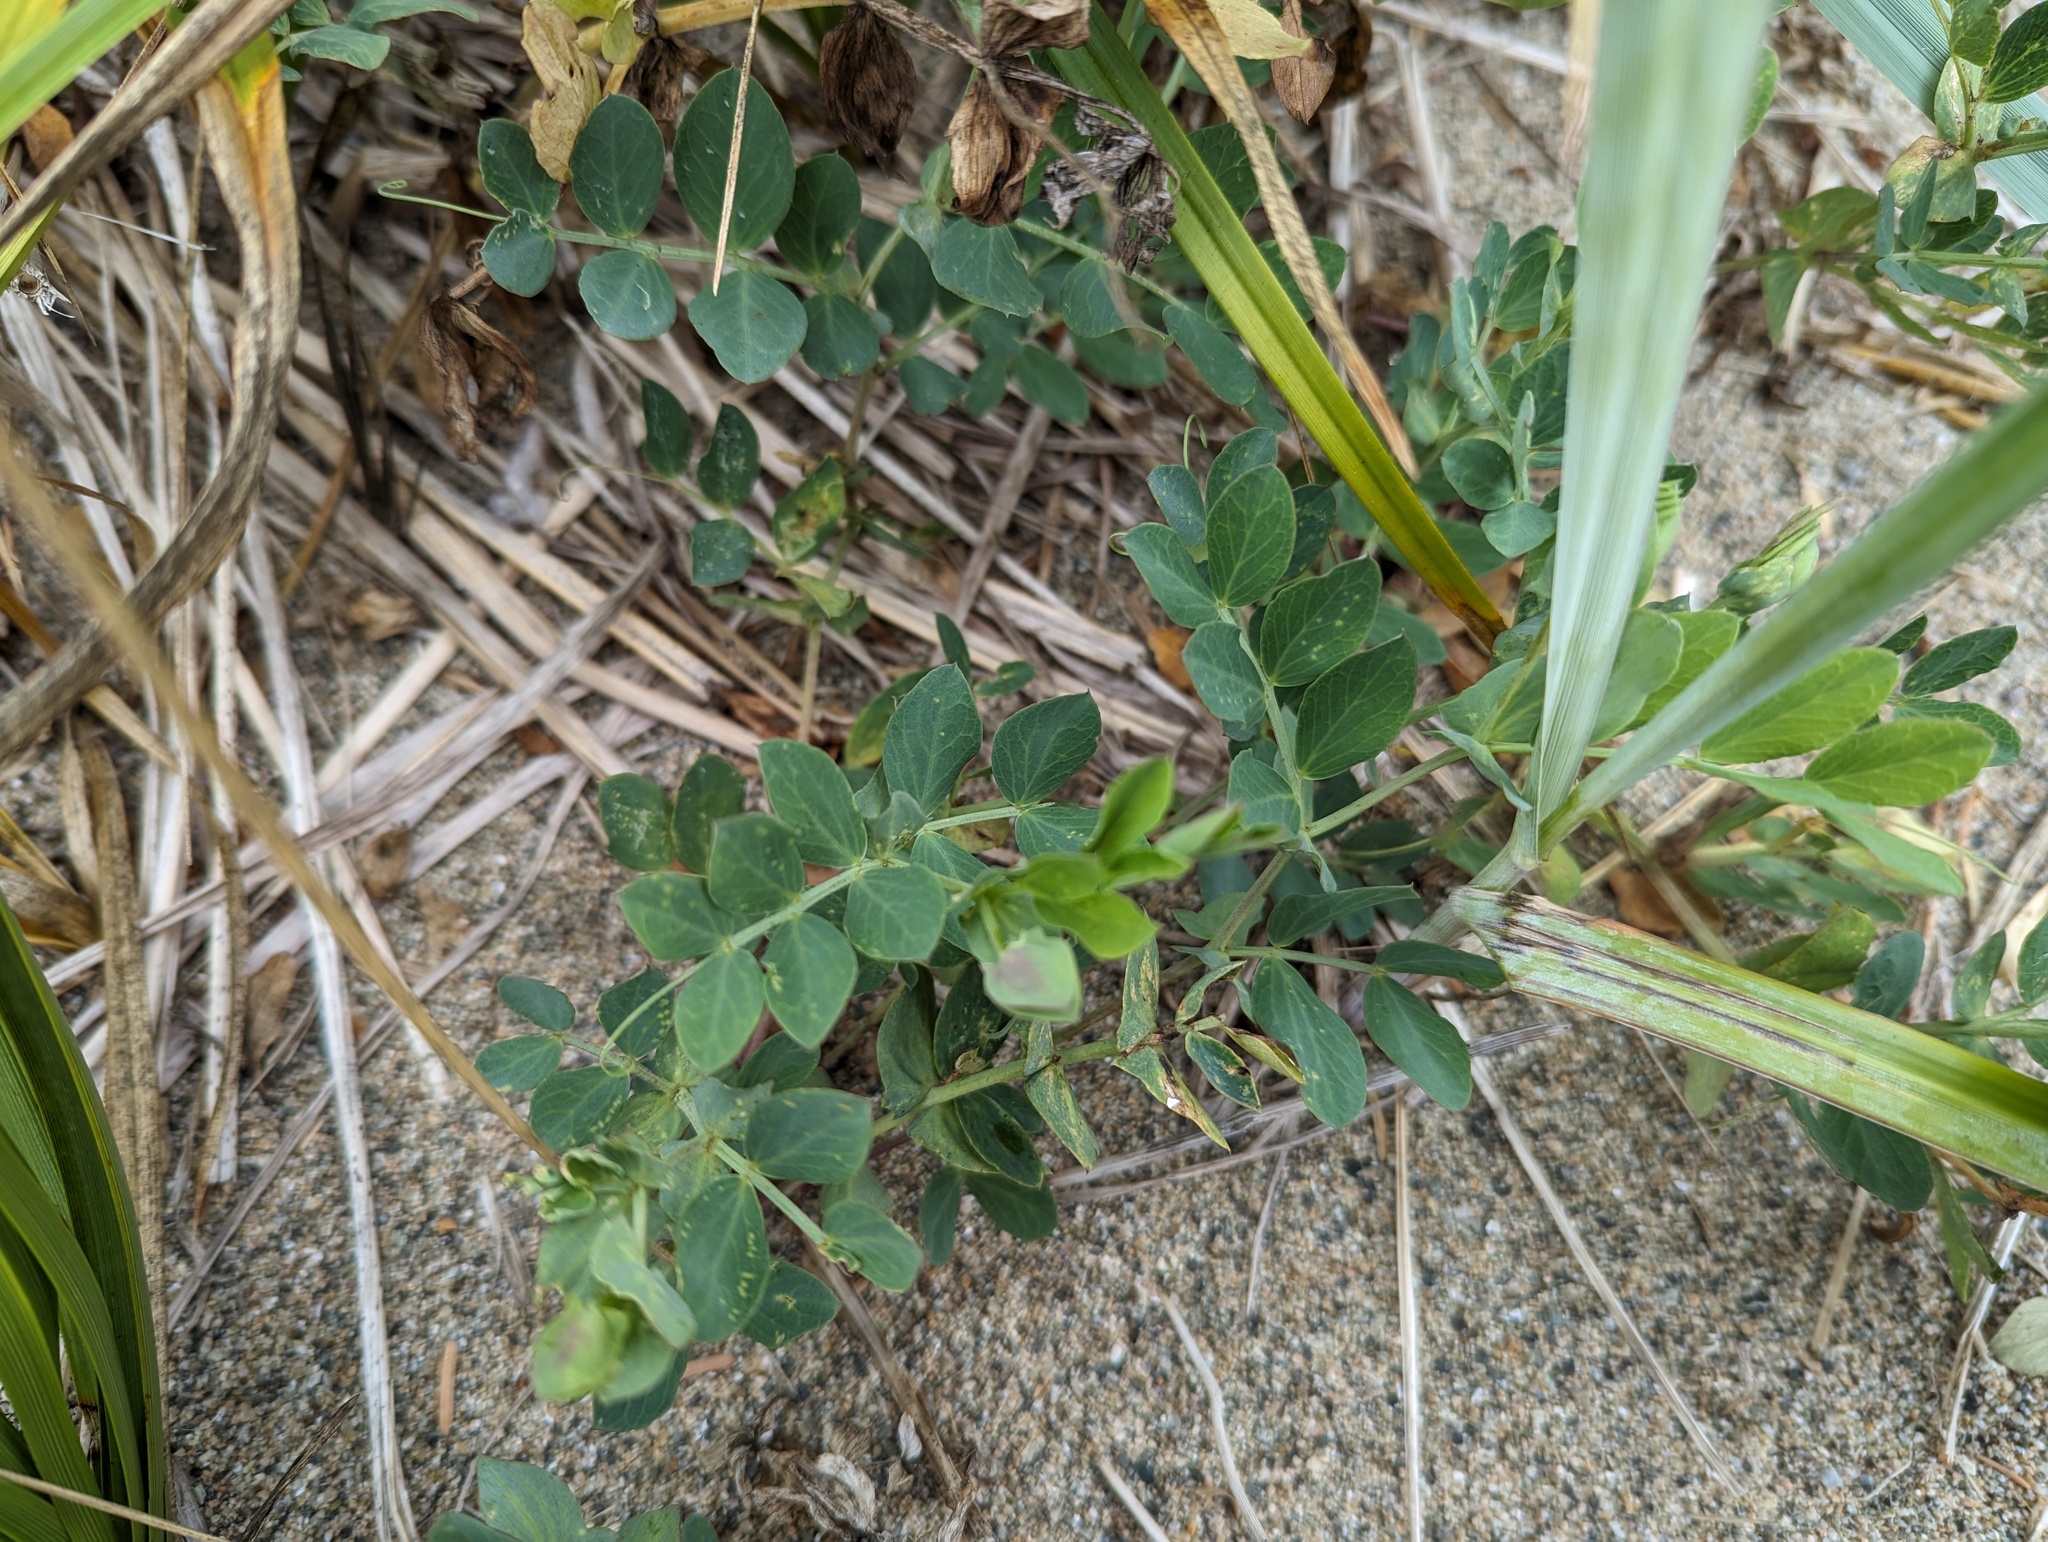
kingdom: Plantae
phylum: Tracheophyta
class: Magnoliopsida
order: Fabales
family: Fabaceae
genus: Lathyrus
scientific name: Lathyrus japonicus
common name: Sea pea
